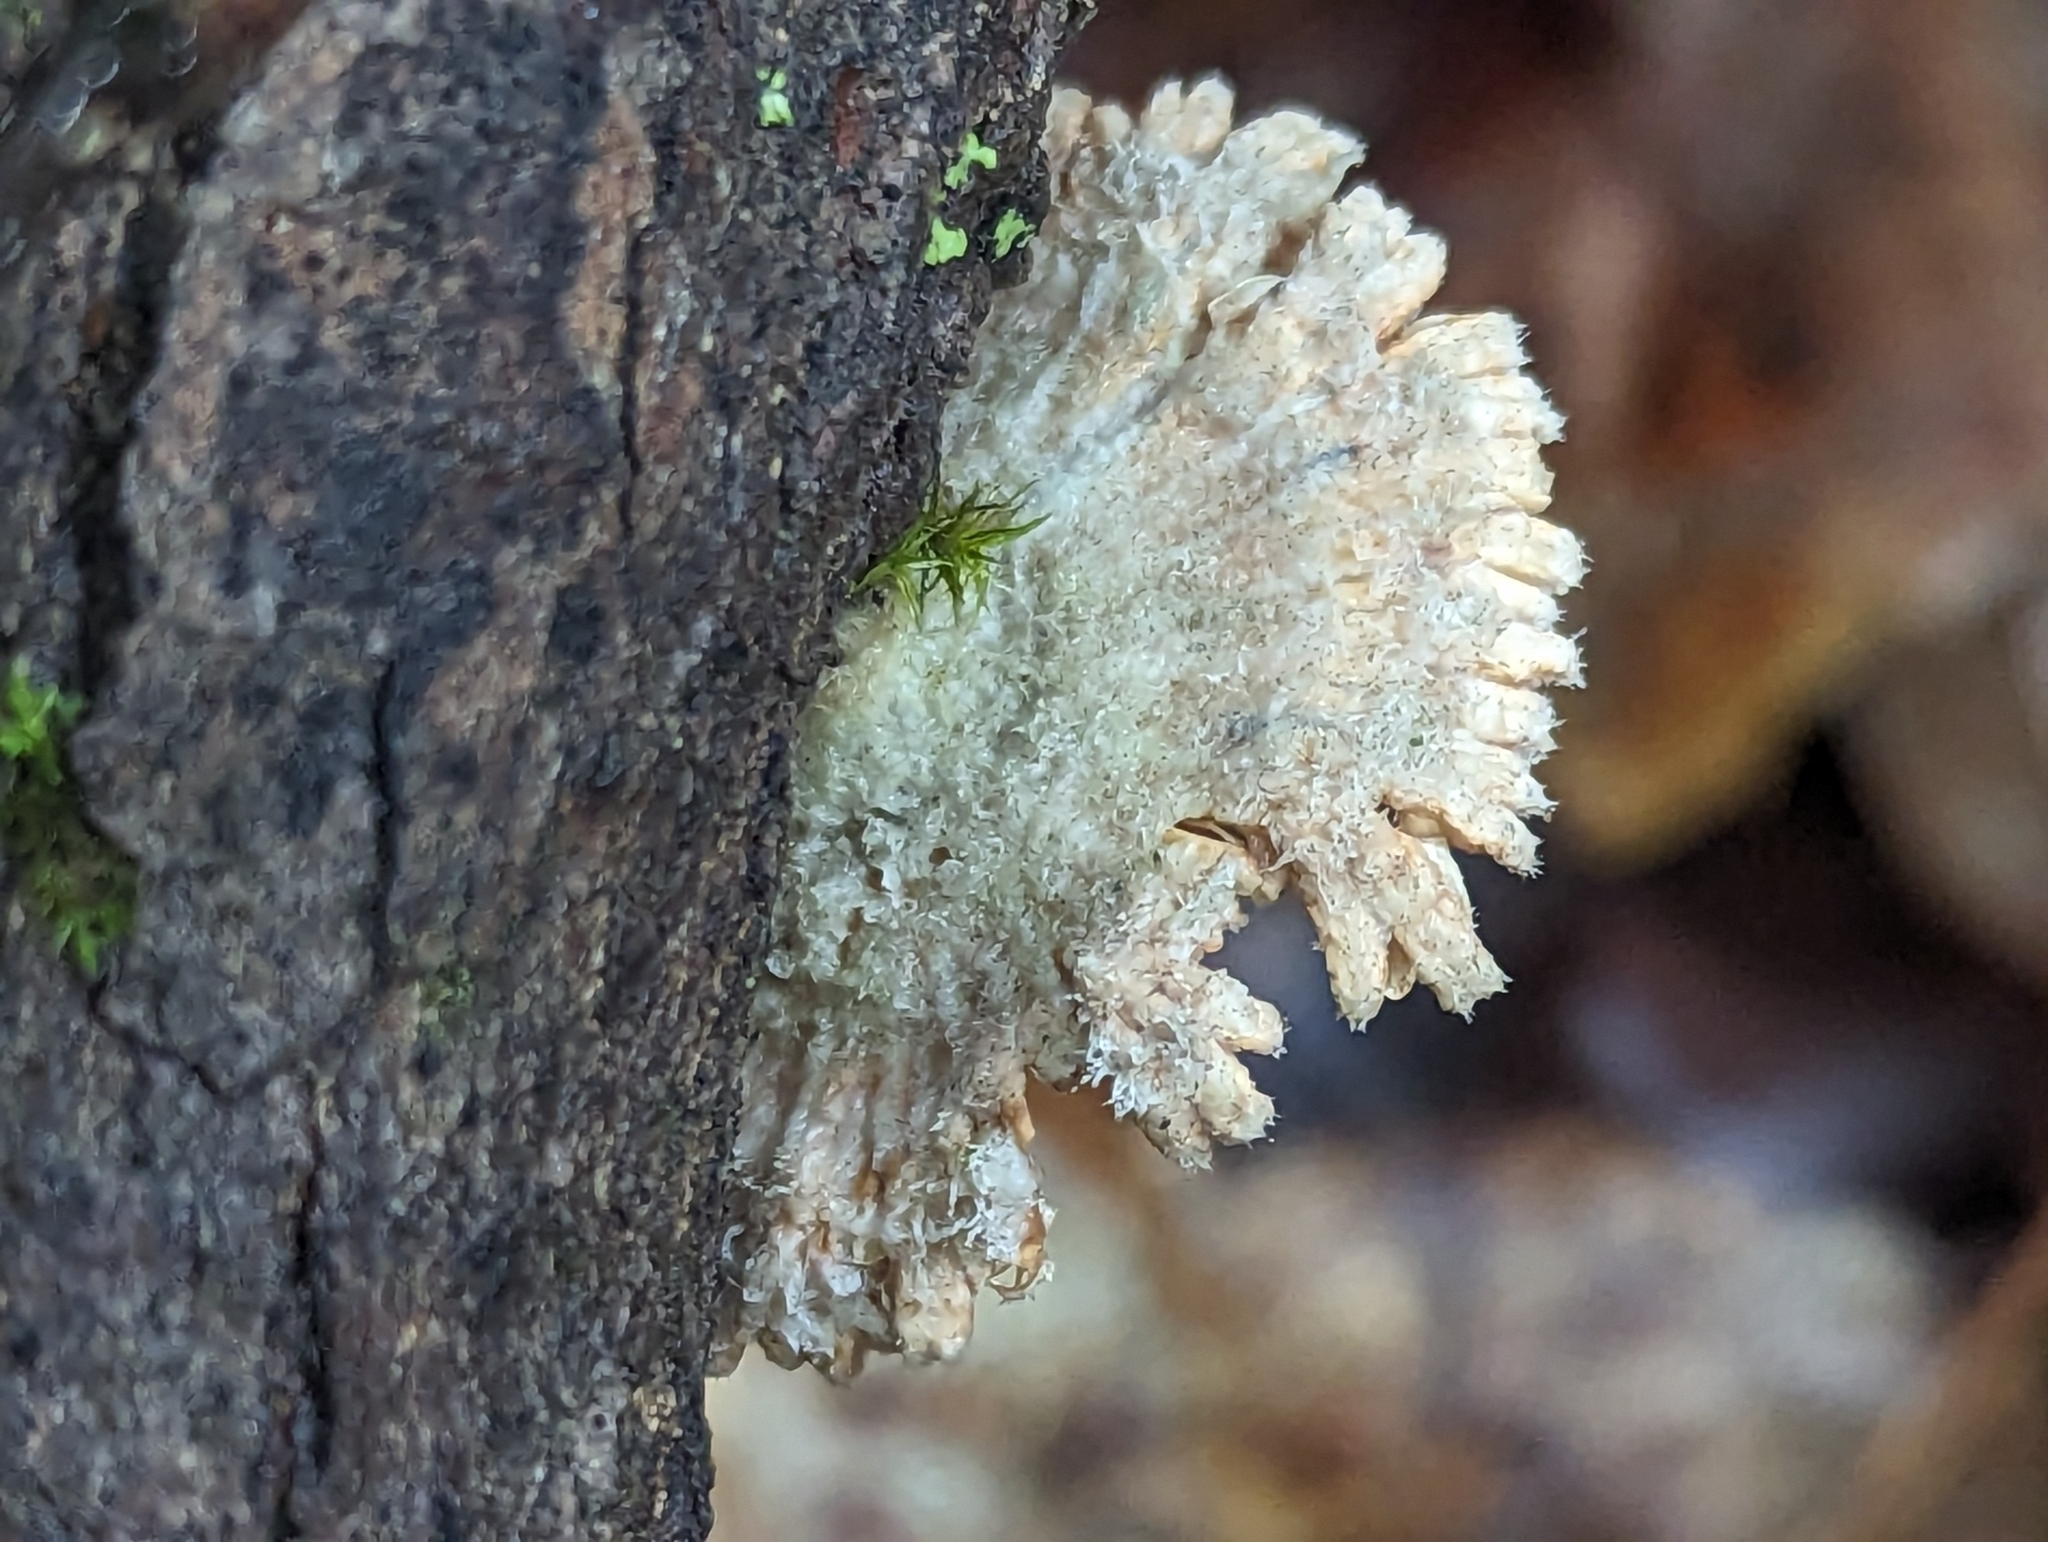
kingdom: Fungi
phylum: Basidiomycota
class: Agaricomycetes
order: Agaricales
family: Schizophyllaceae
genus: Schizophyllum
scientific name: Schizophyllum commune
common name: Common porecrust
